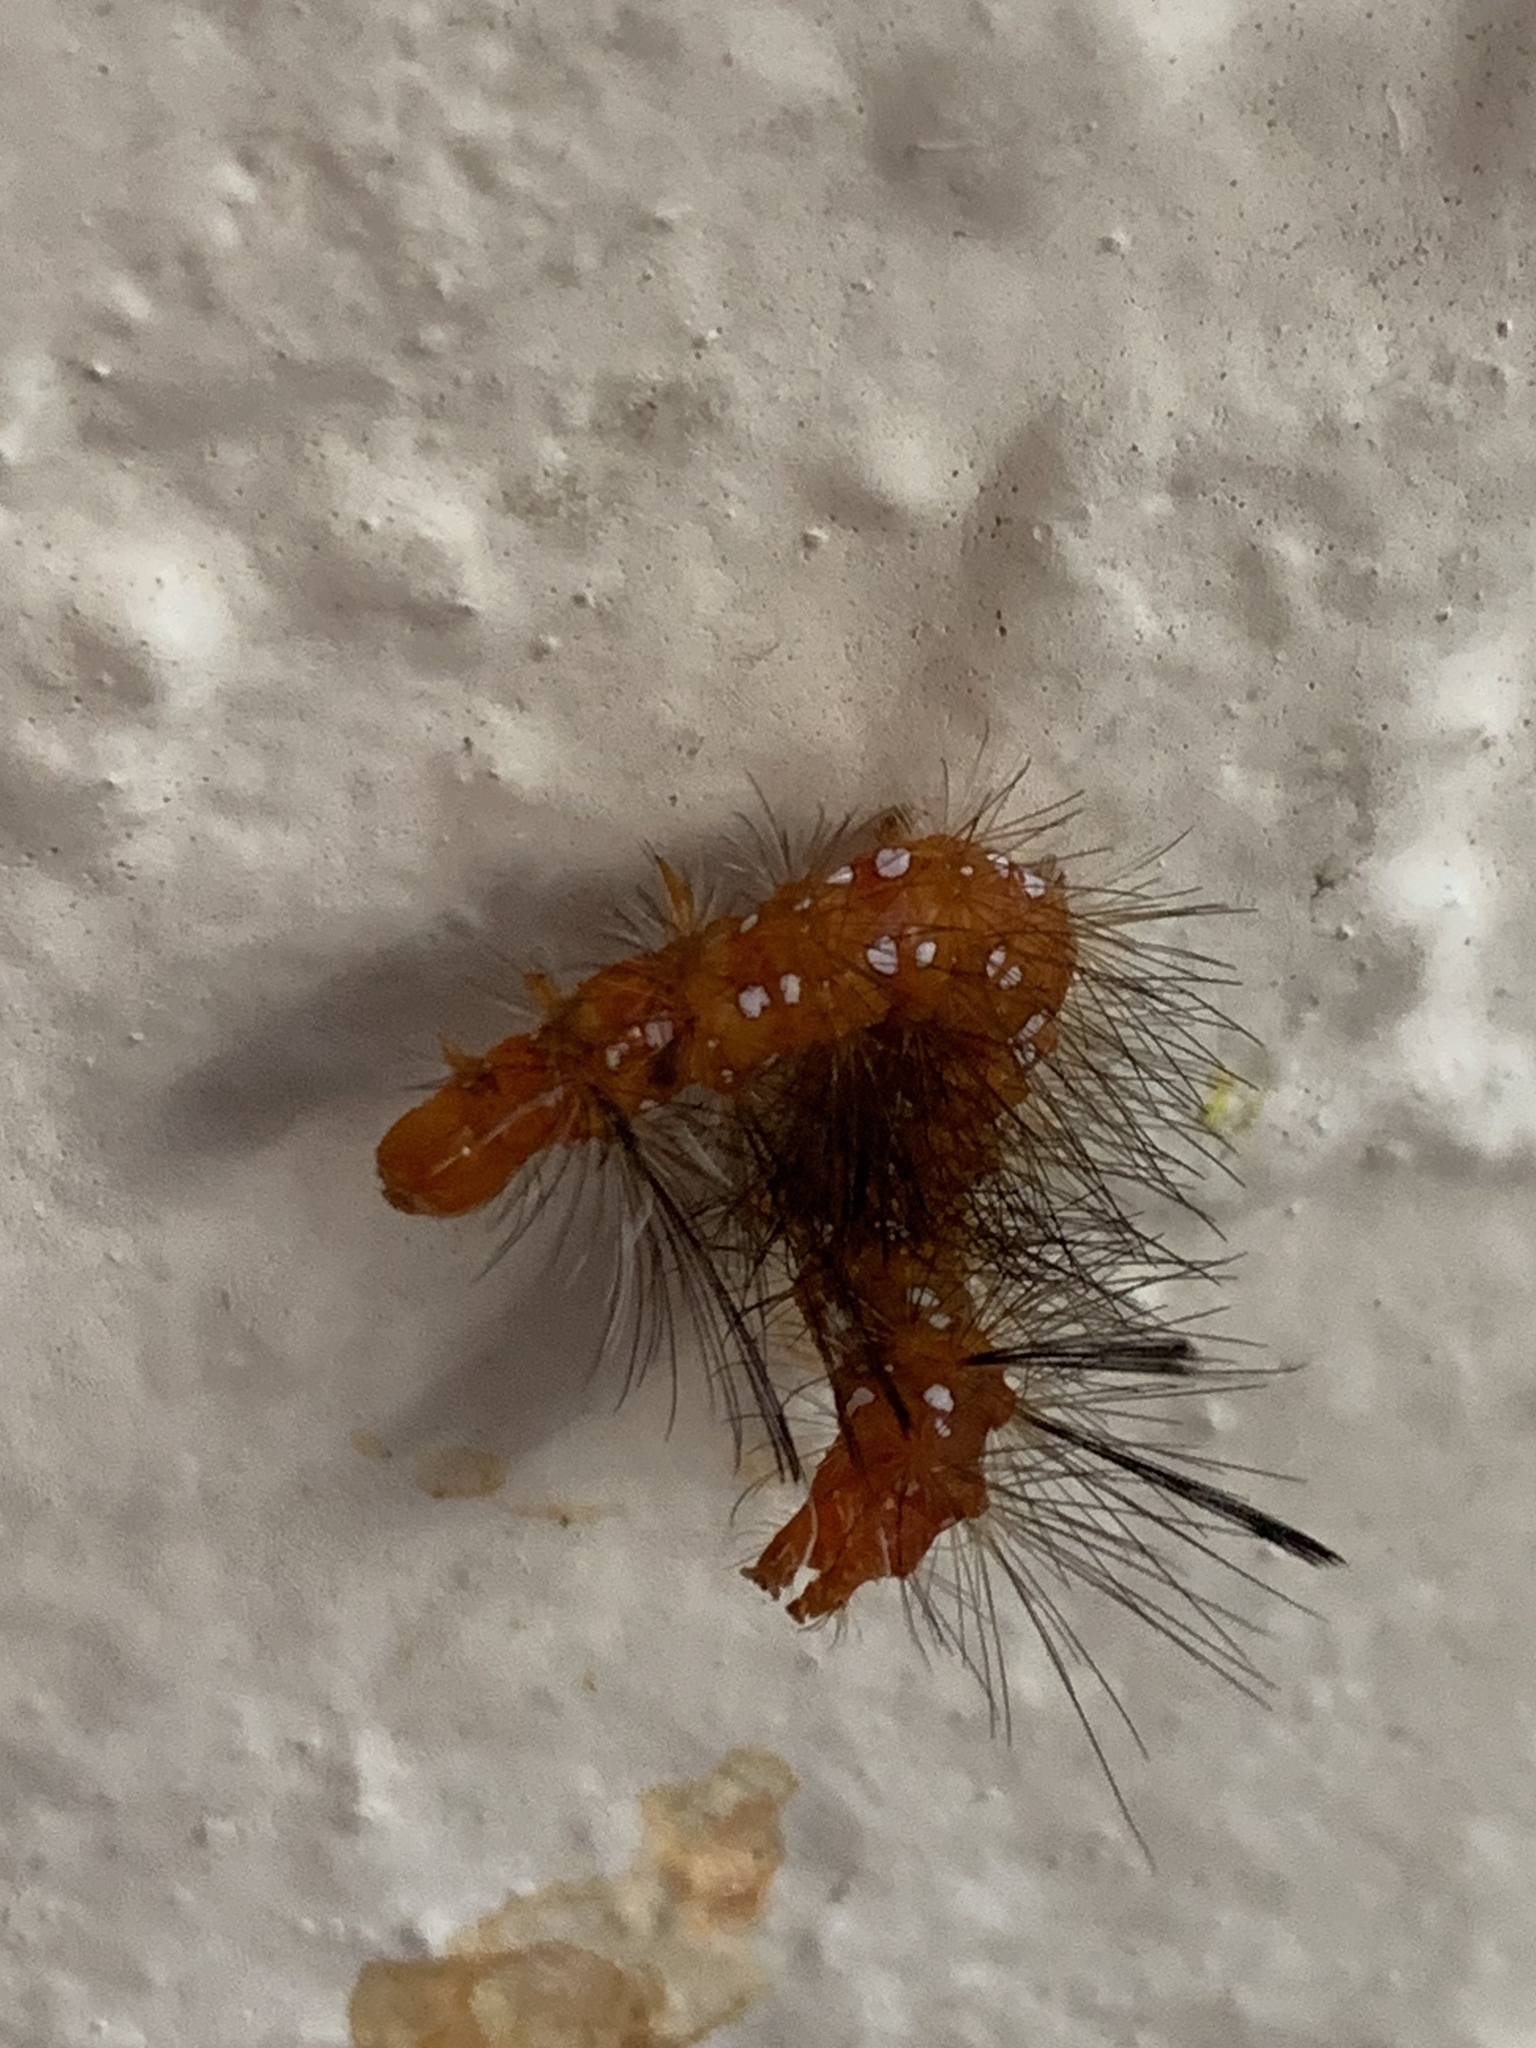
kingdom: Animalia
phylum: Arthropoda
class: Insecta
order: Lepidoptera
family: Erebidae
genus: Empyreuma
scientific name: Empyreuma pugione
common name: Spotted oleander caterpillar moth
